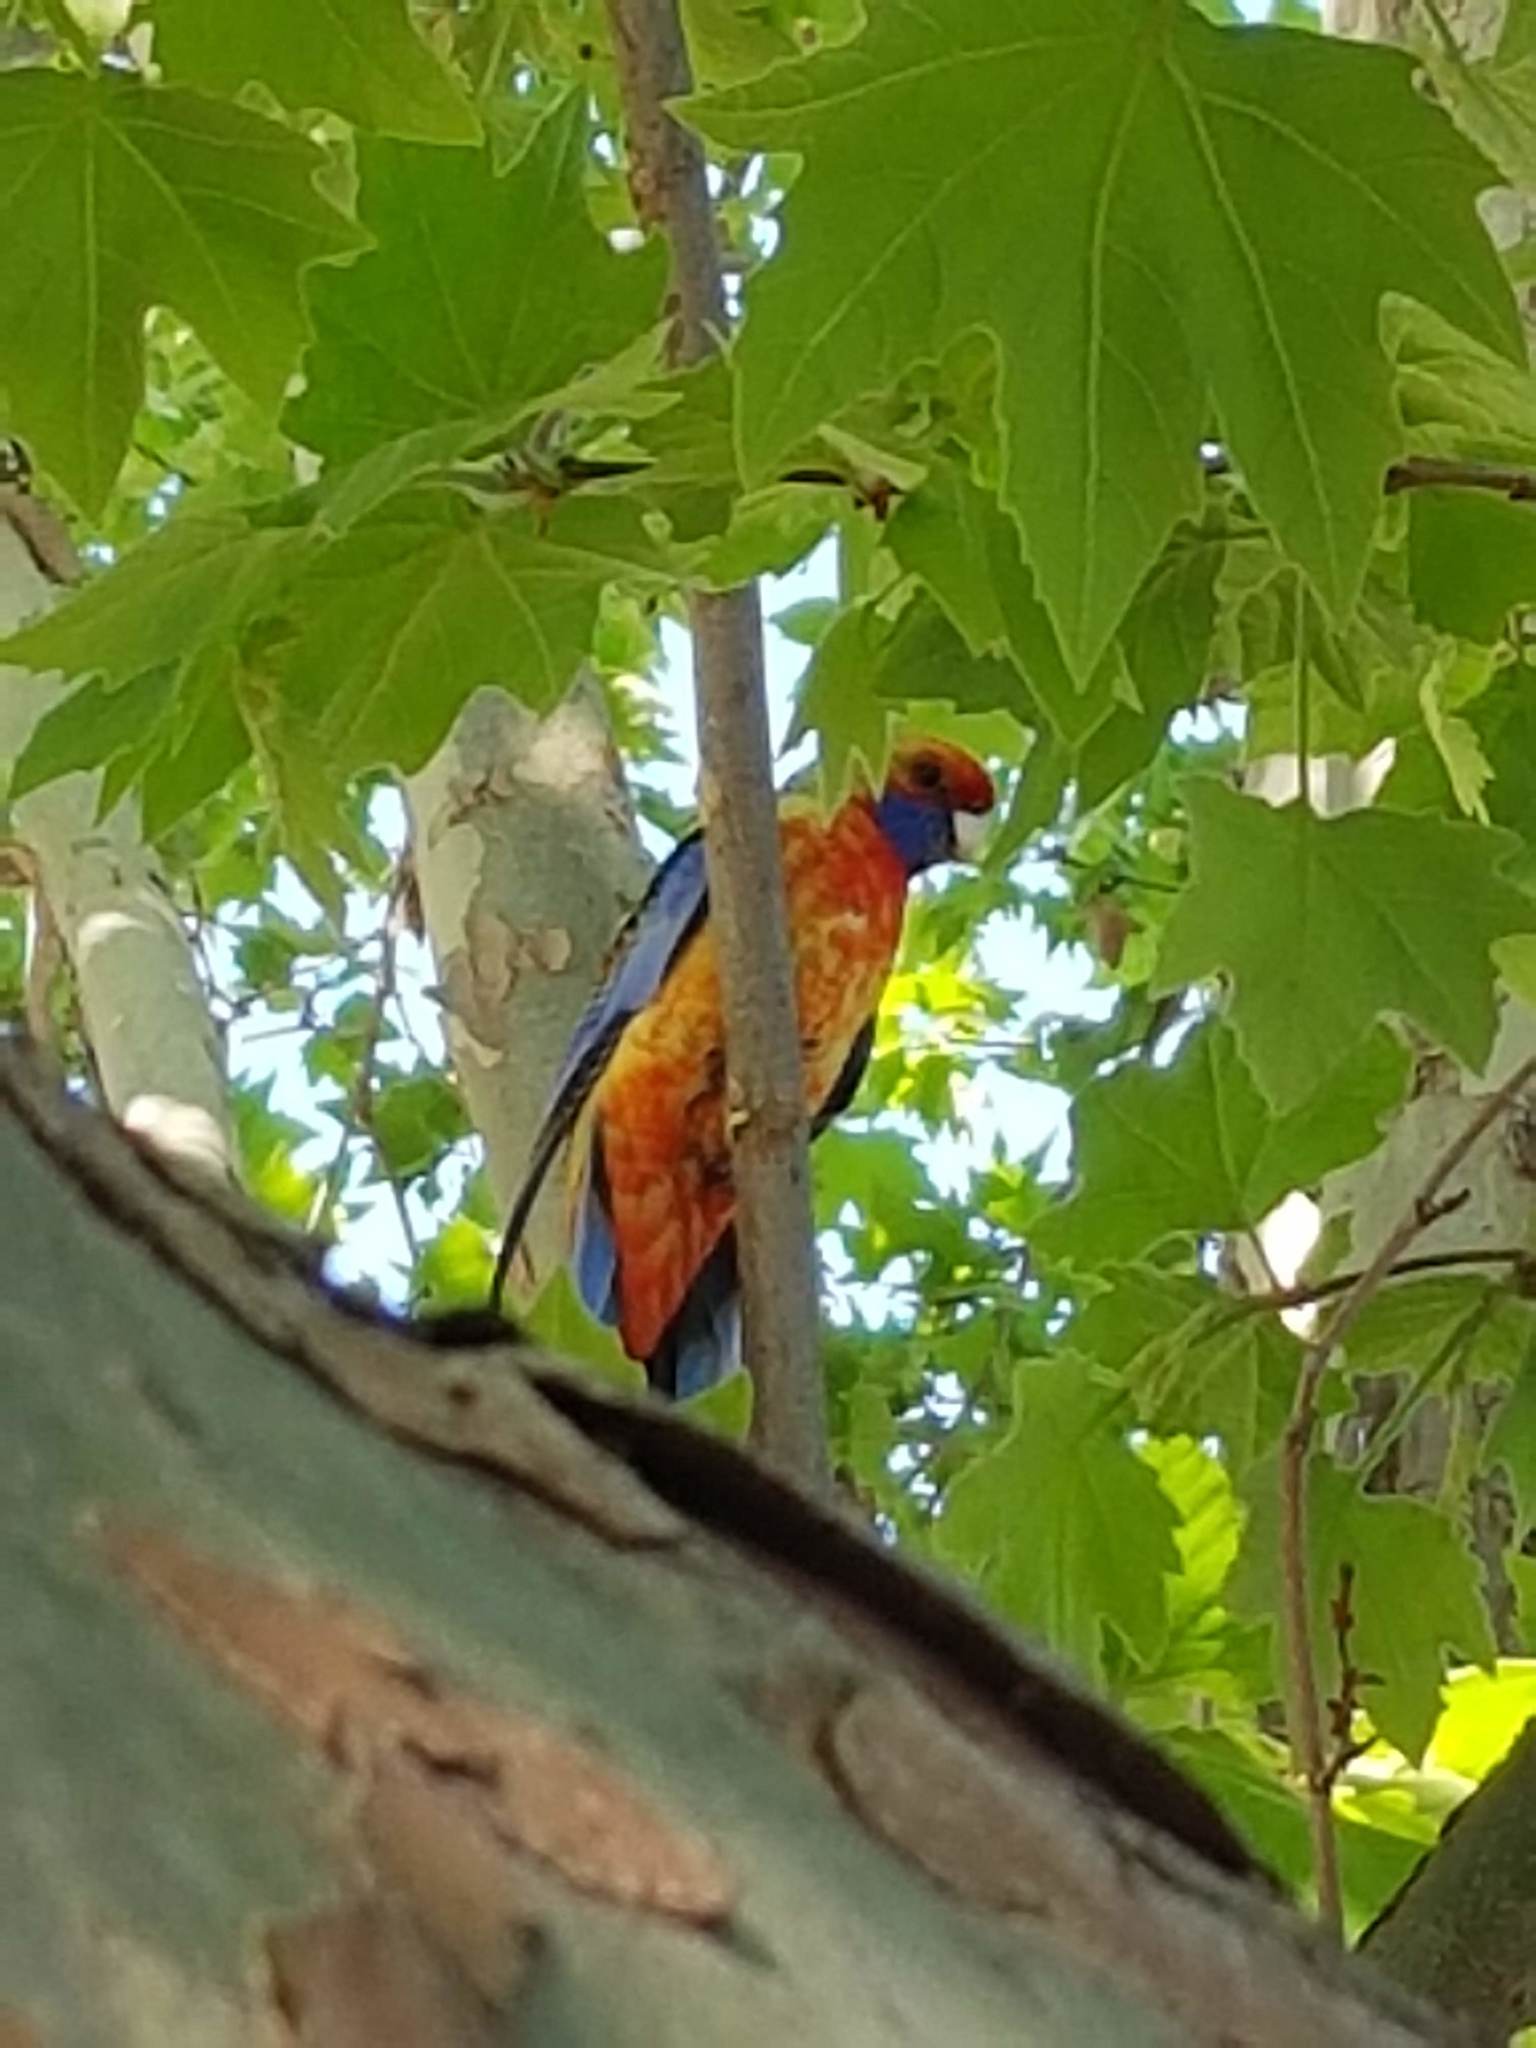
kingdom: Animalia
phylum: Chordata
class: Aves
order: Psittaciformes
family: Psittacidae
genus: Platycercus
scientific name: Platycercus elegans
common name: Crimson rosella
